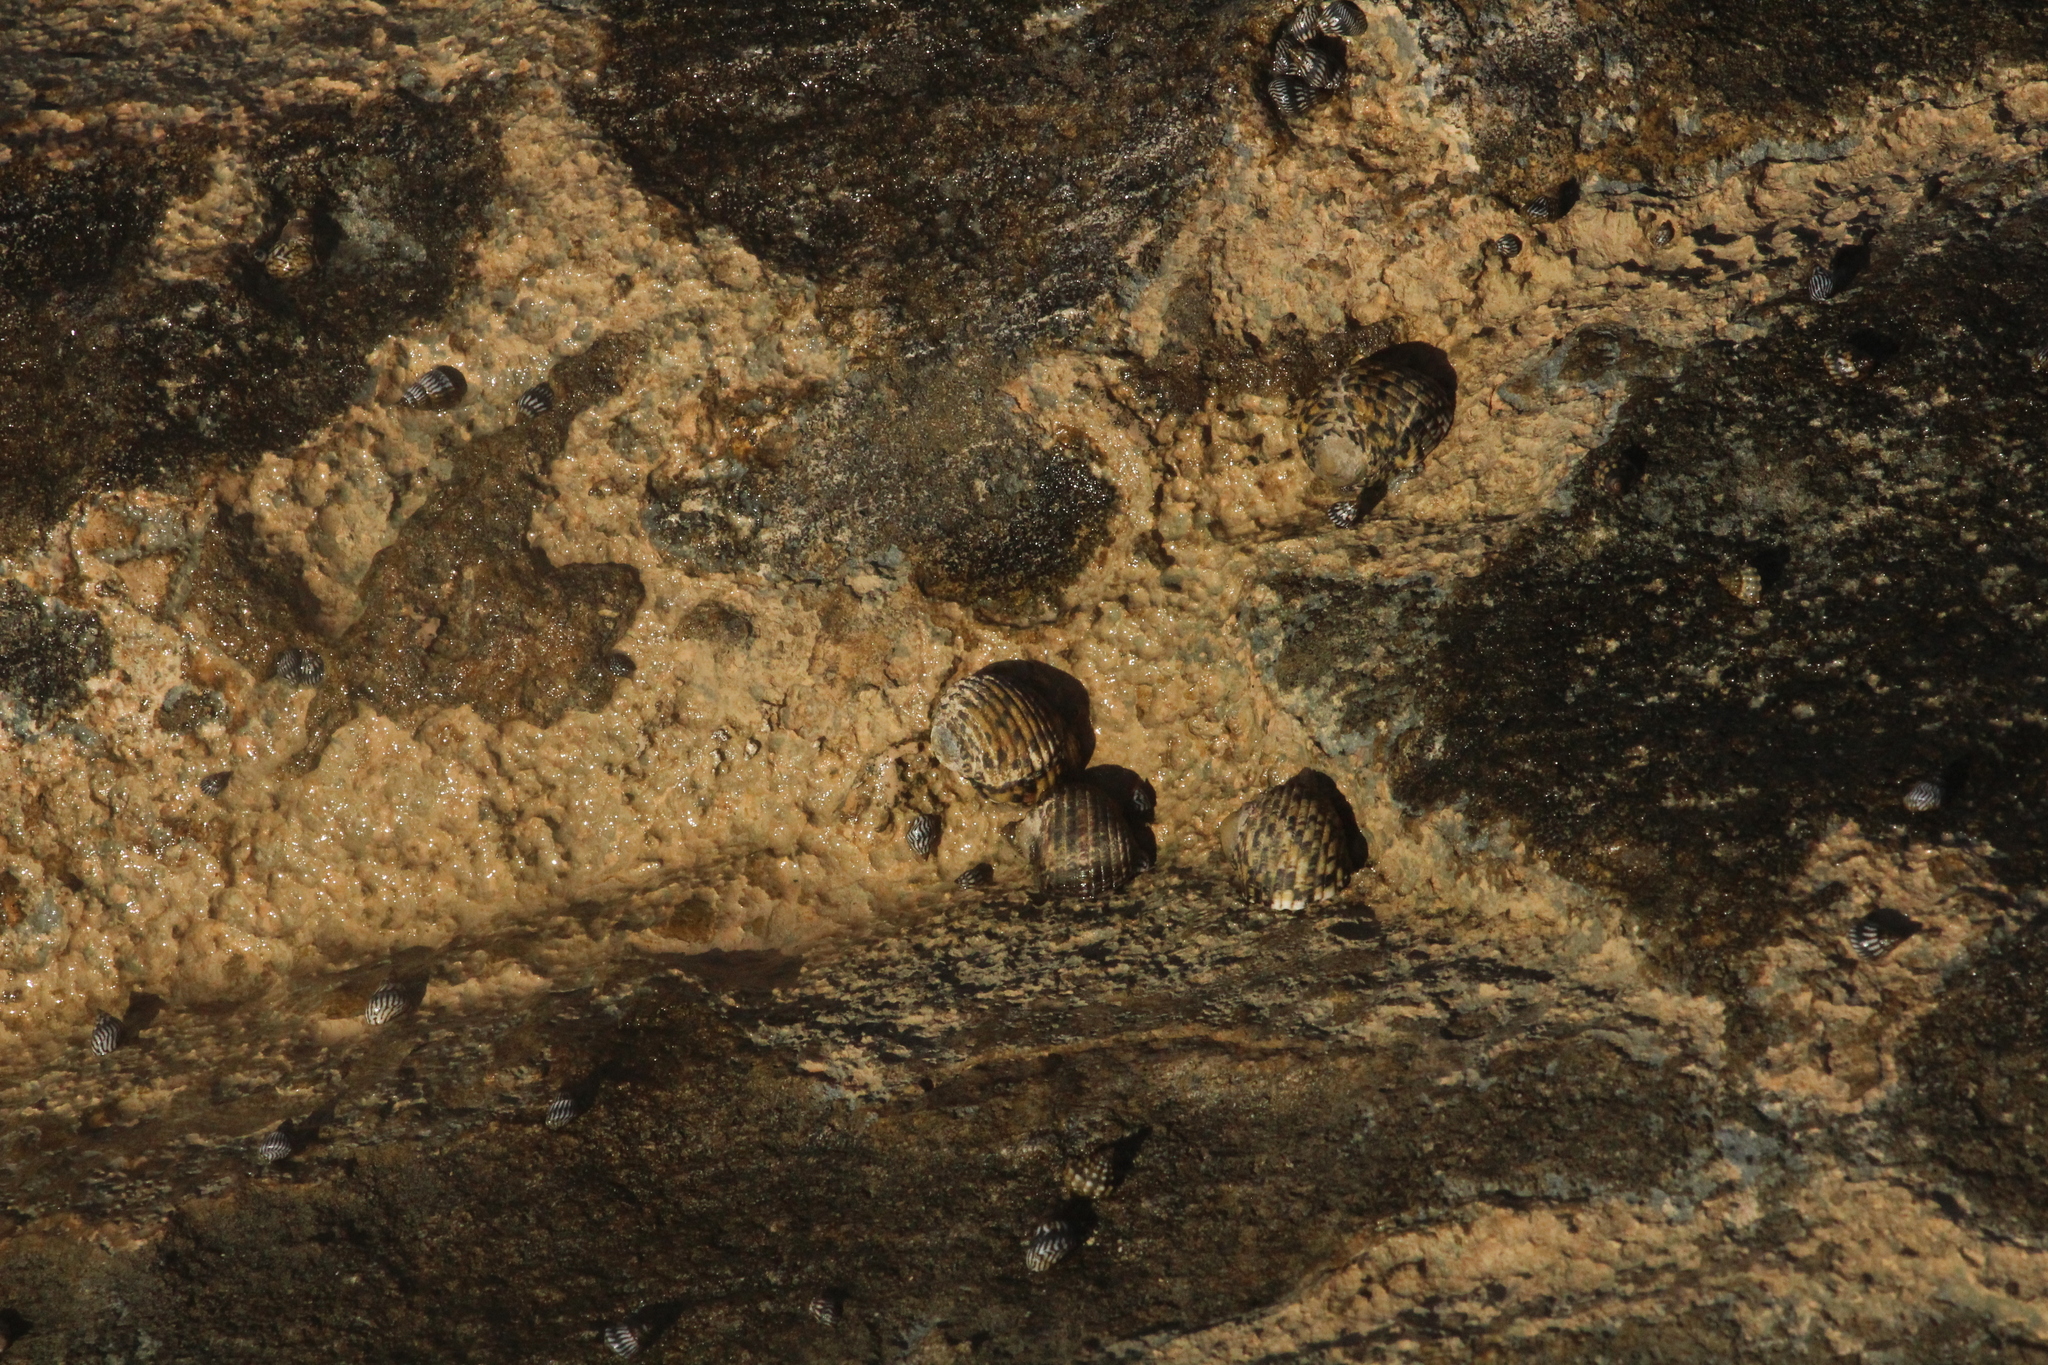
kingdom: Animalia
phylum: Mollusca
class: Gastropoda
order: Cycloneritida
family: Neritidae
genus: Nerita
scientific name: Nerita versicolor
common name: Four-tooth nerite
